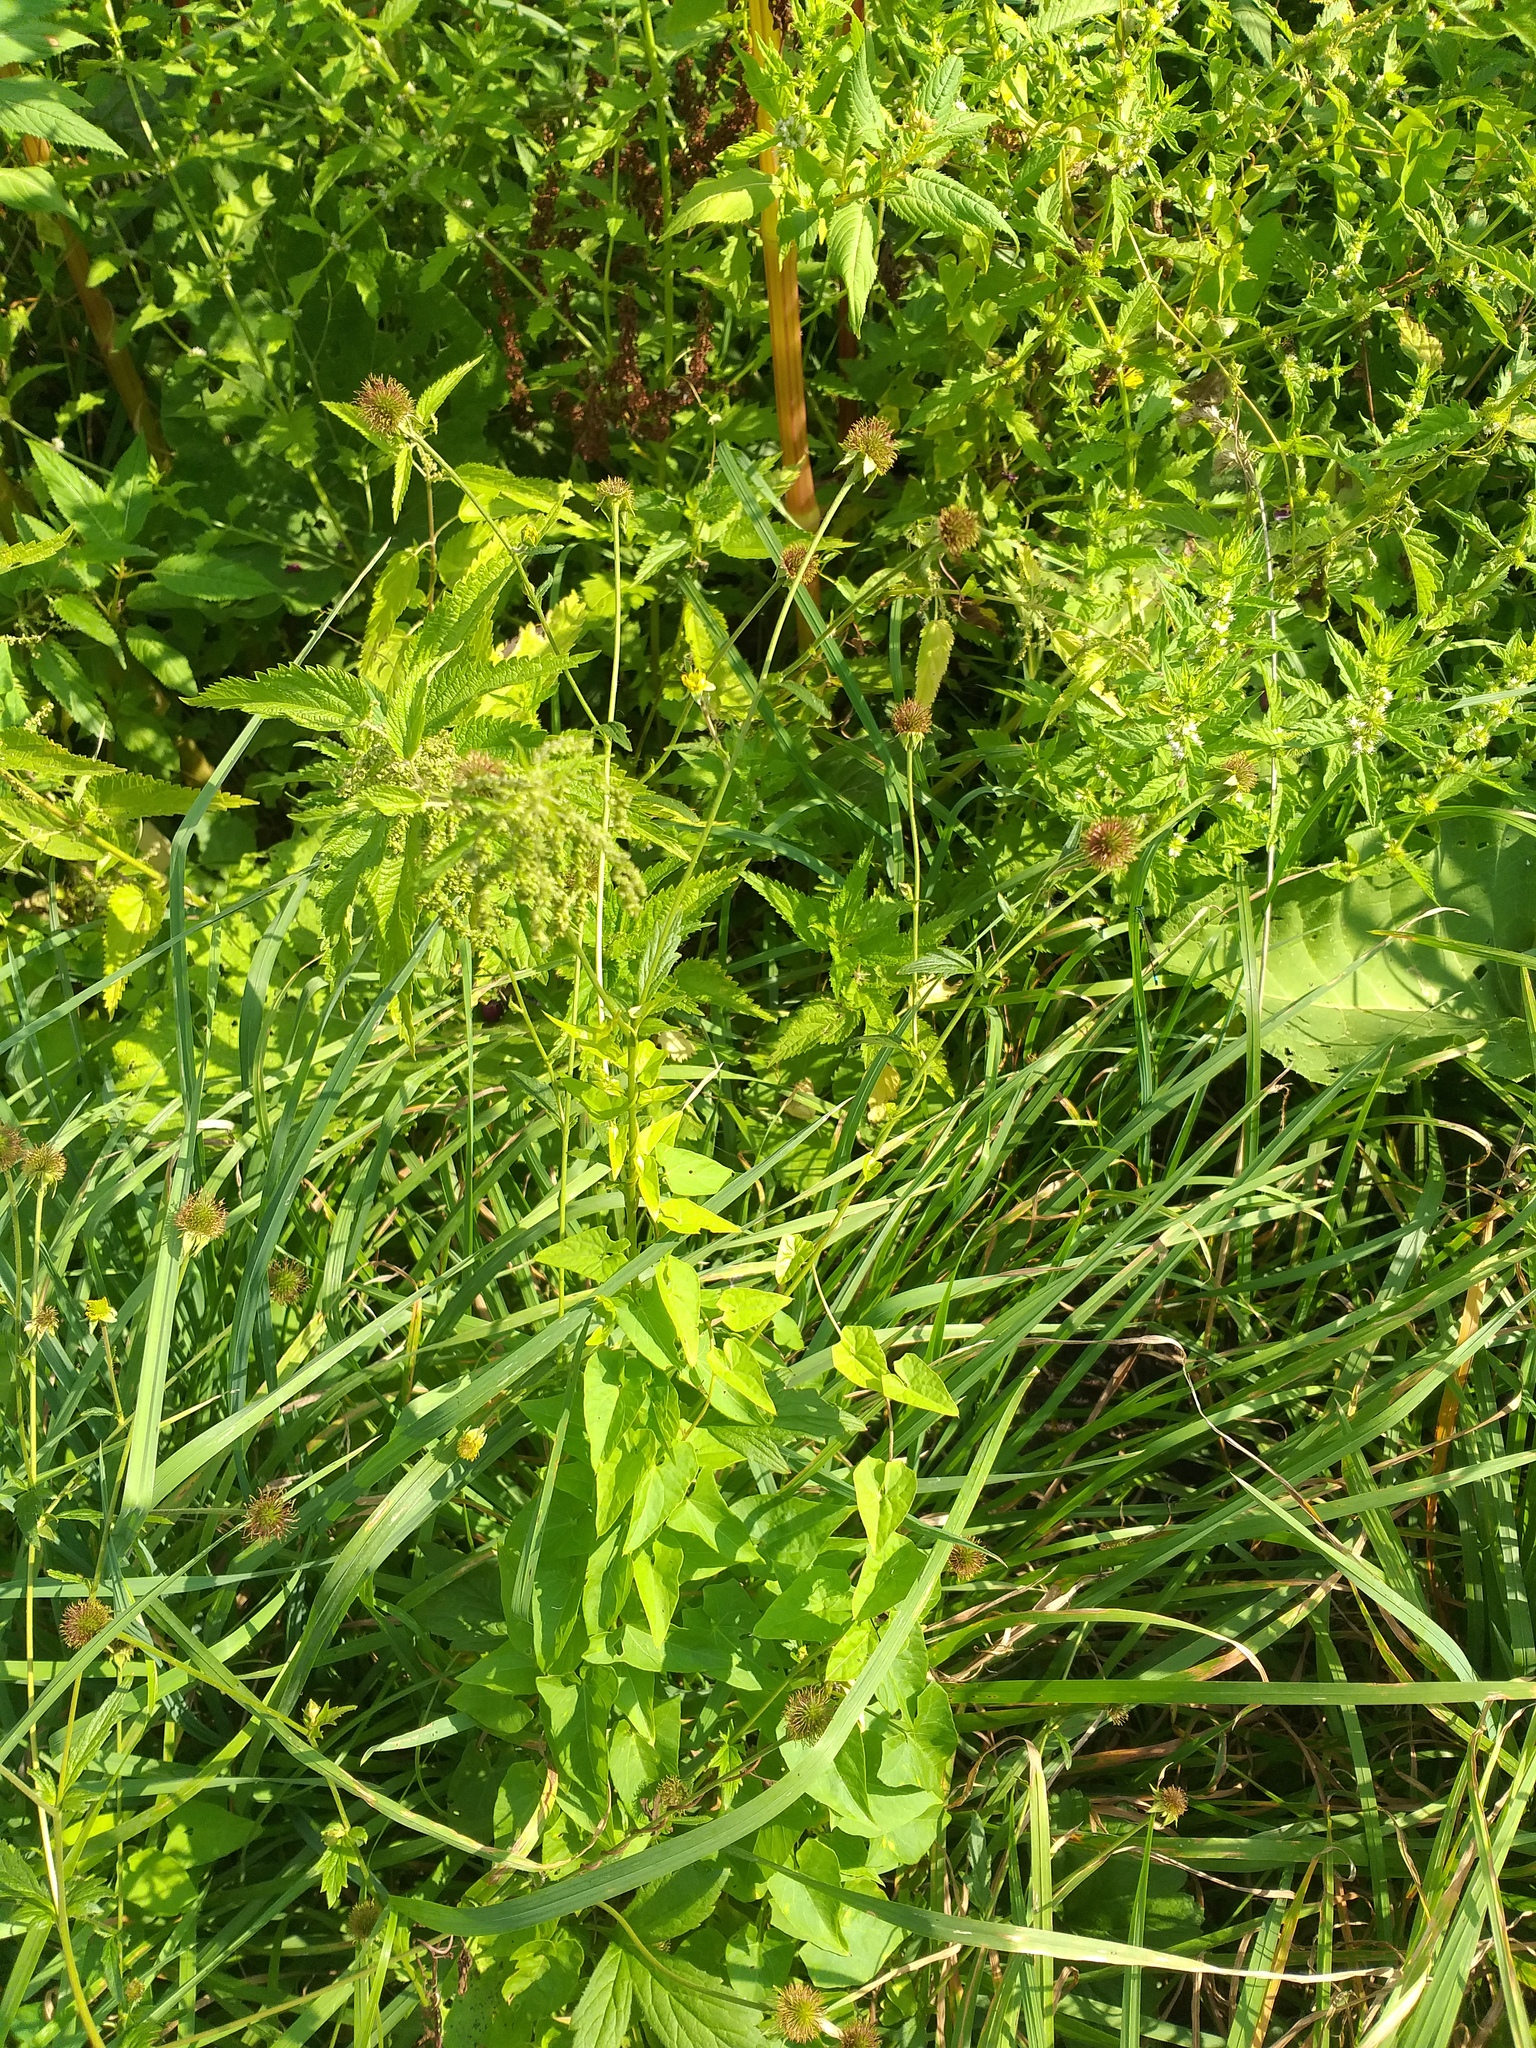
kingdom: Plantae
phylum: Tracheophyta
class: Magnoliopsida
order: Rosales
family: Rosaceae
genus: Geum
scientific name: Geum urbanum
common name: Wood avens
